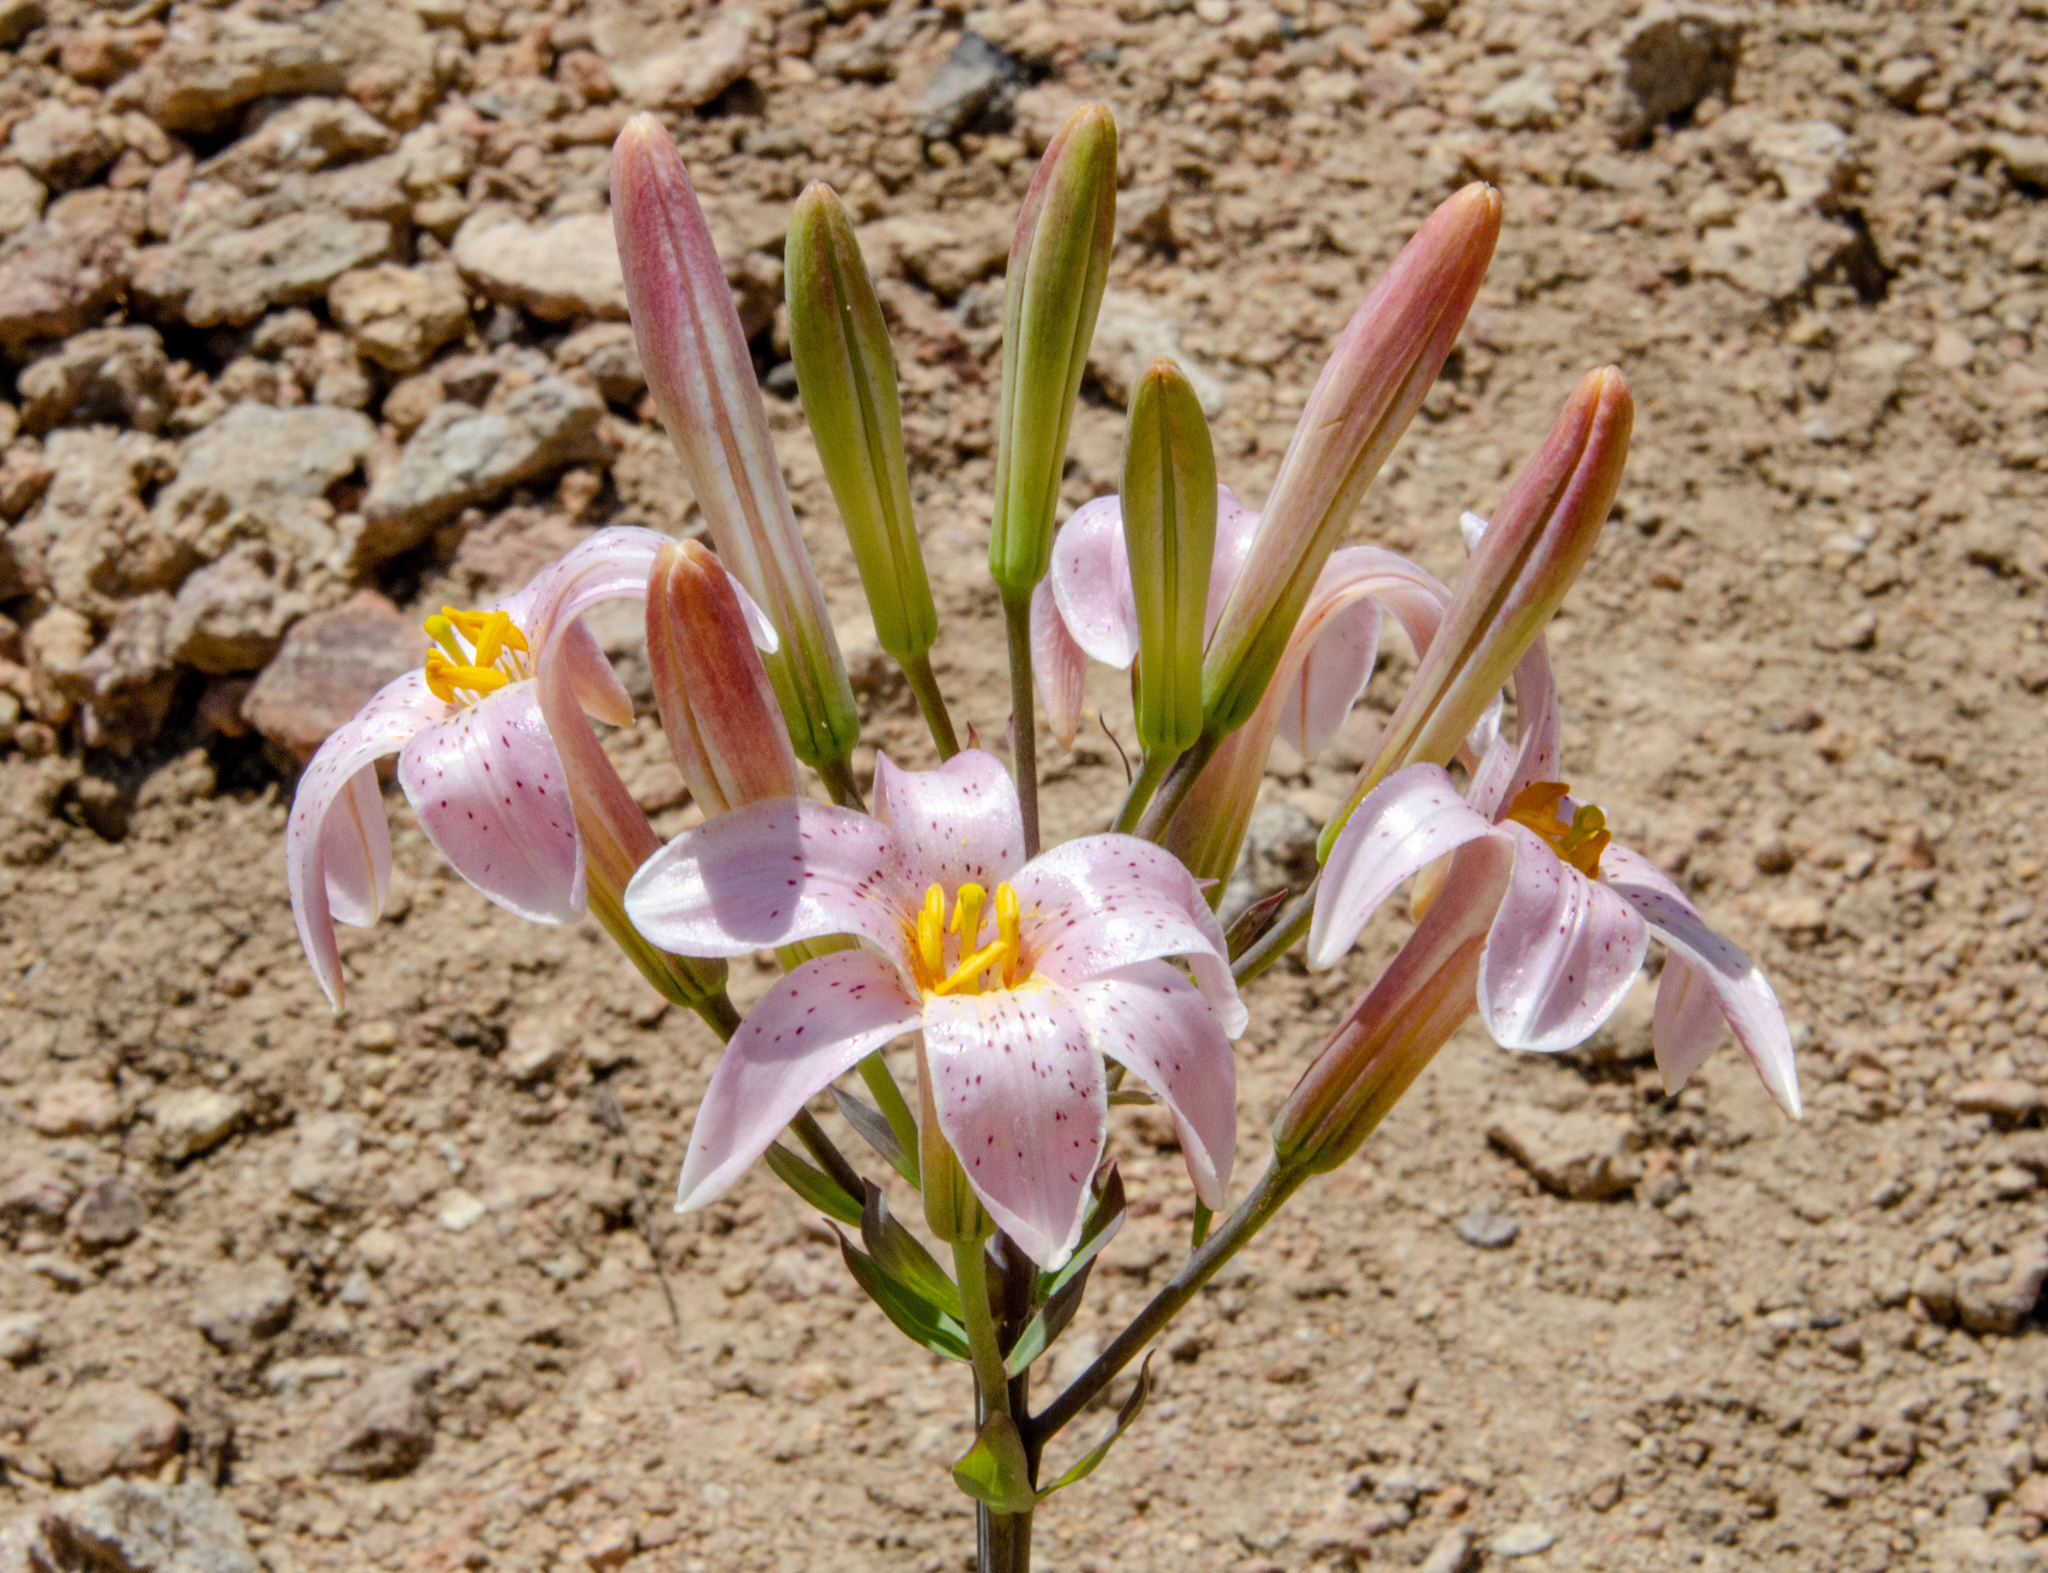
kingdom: Plantae
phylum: Tracheophyta
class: Liliopsida
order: Liliales
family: Liliaceae
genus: Lilium
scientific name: Lilium rubescens
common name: Chamise lily
